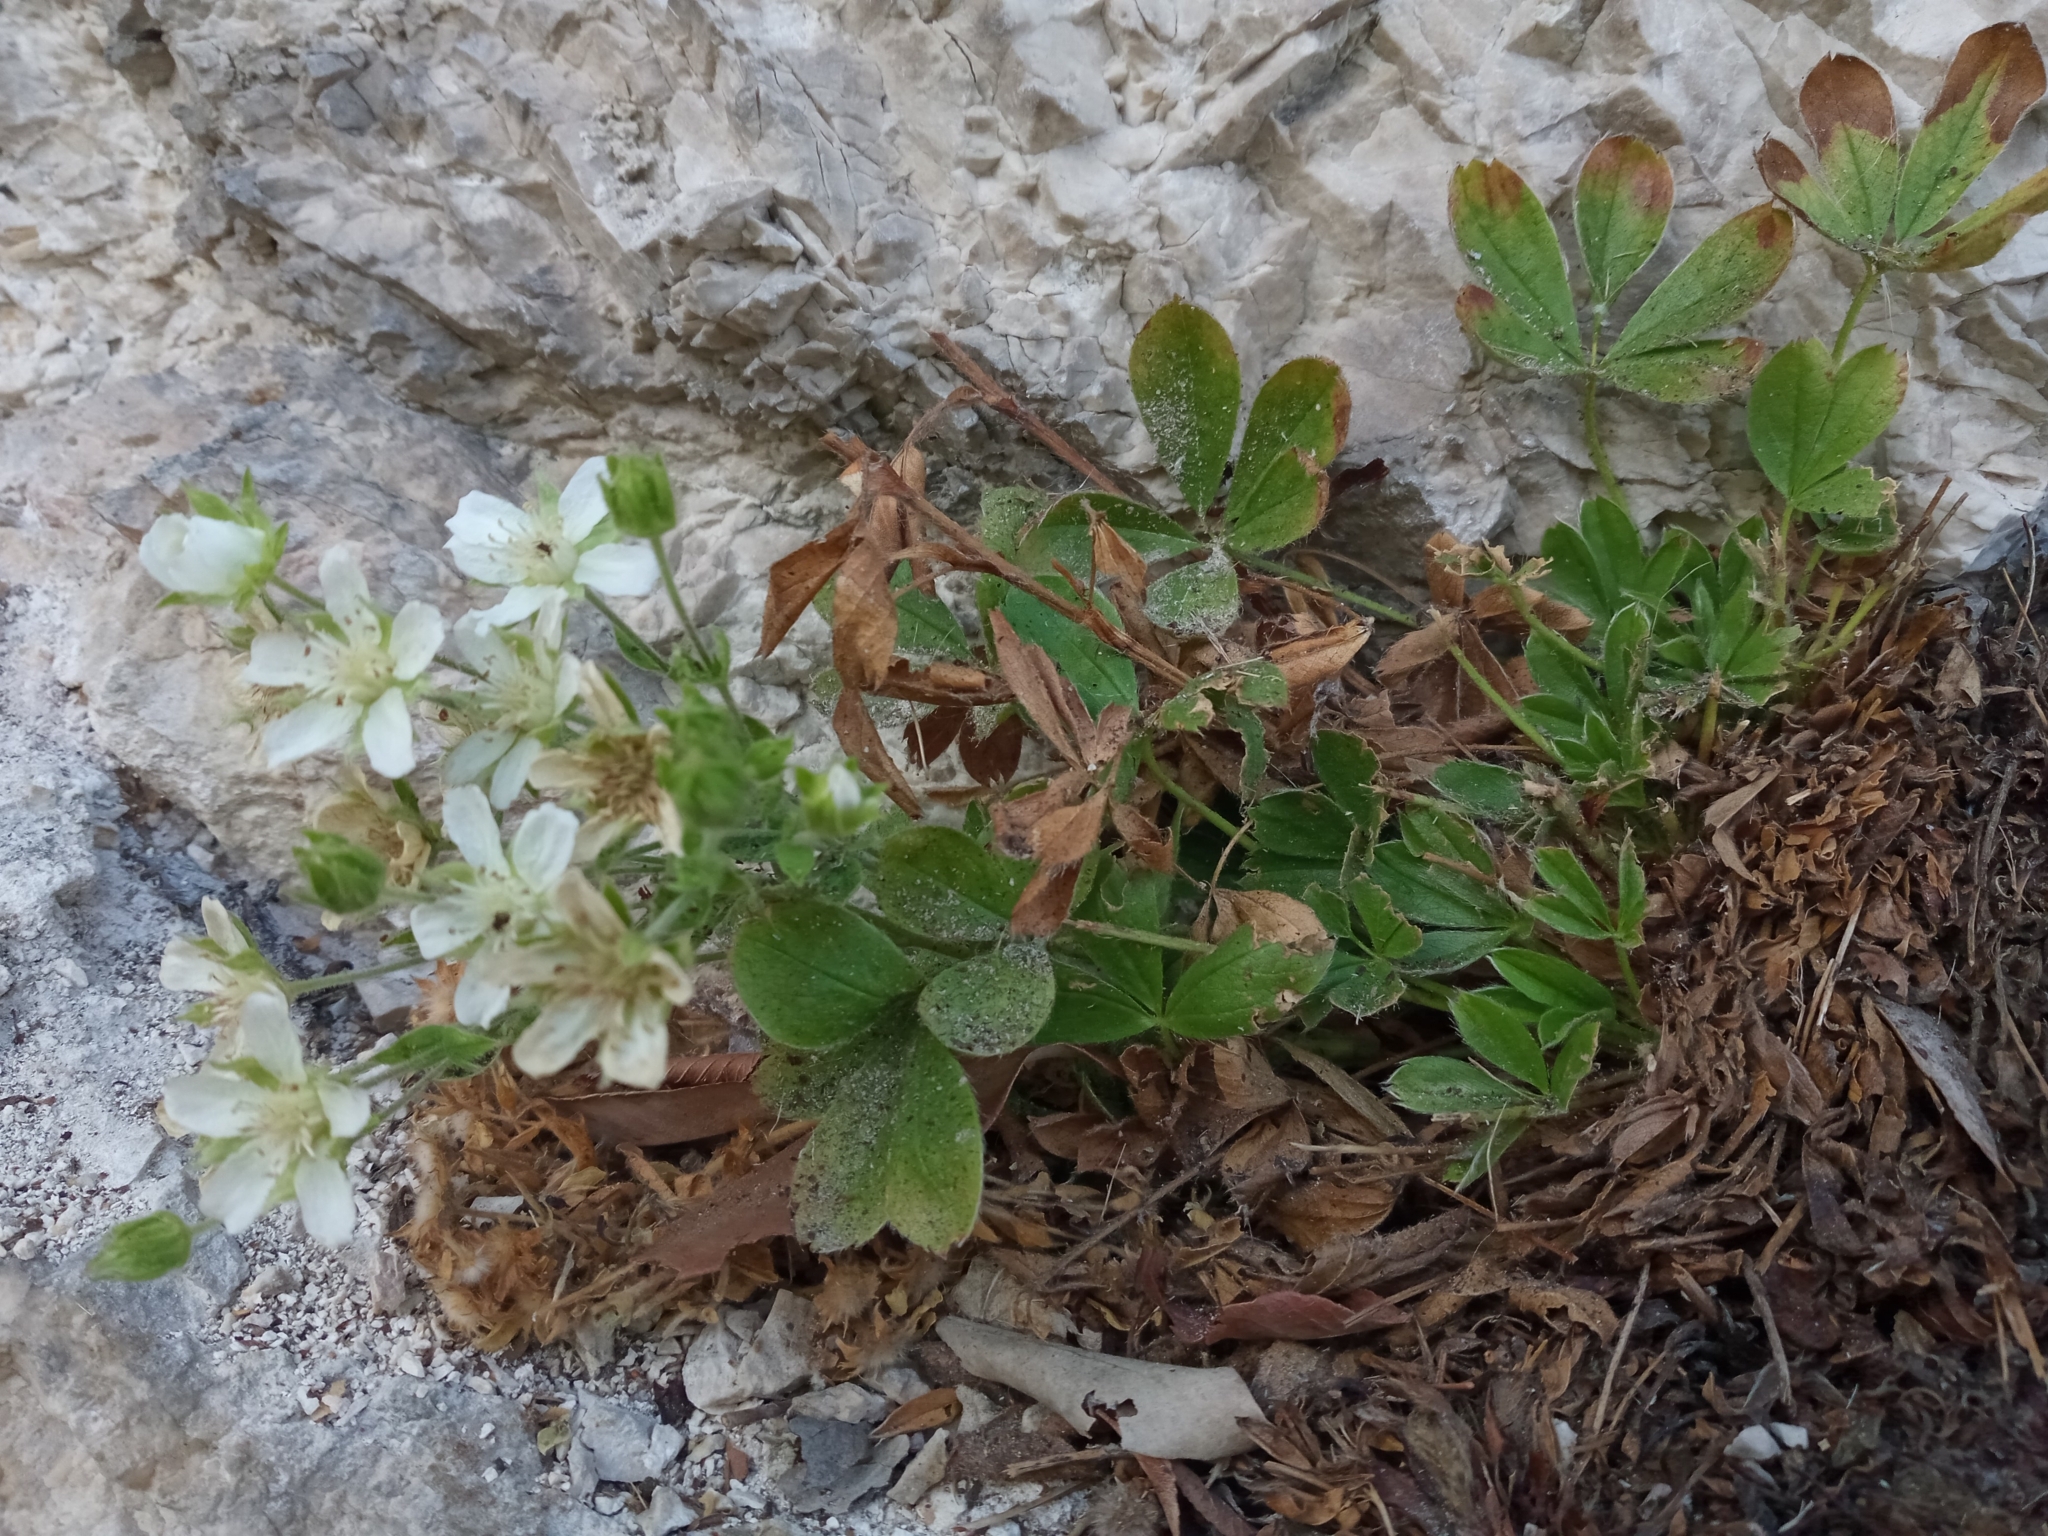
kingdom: Plantae
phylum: Tracheophyta
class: Magnoliopsida
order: Rosales
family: Rosaceae
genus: Potentilla
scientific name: Potentilla caulescens
